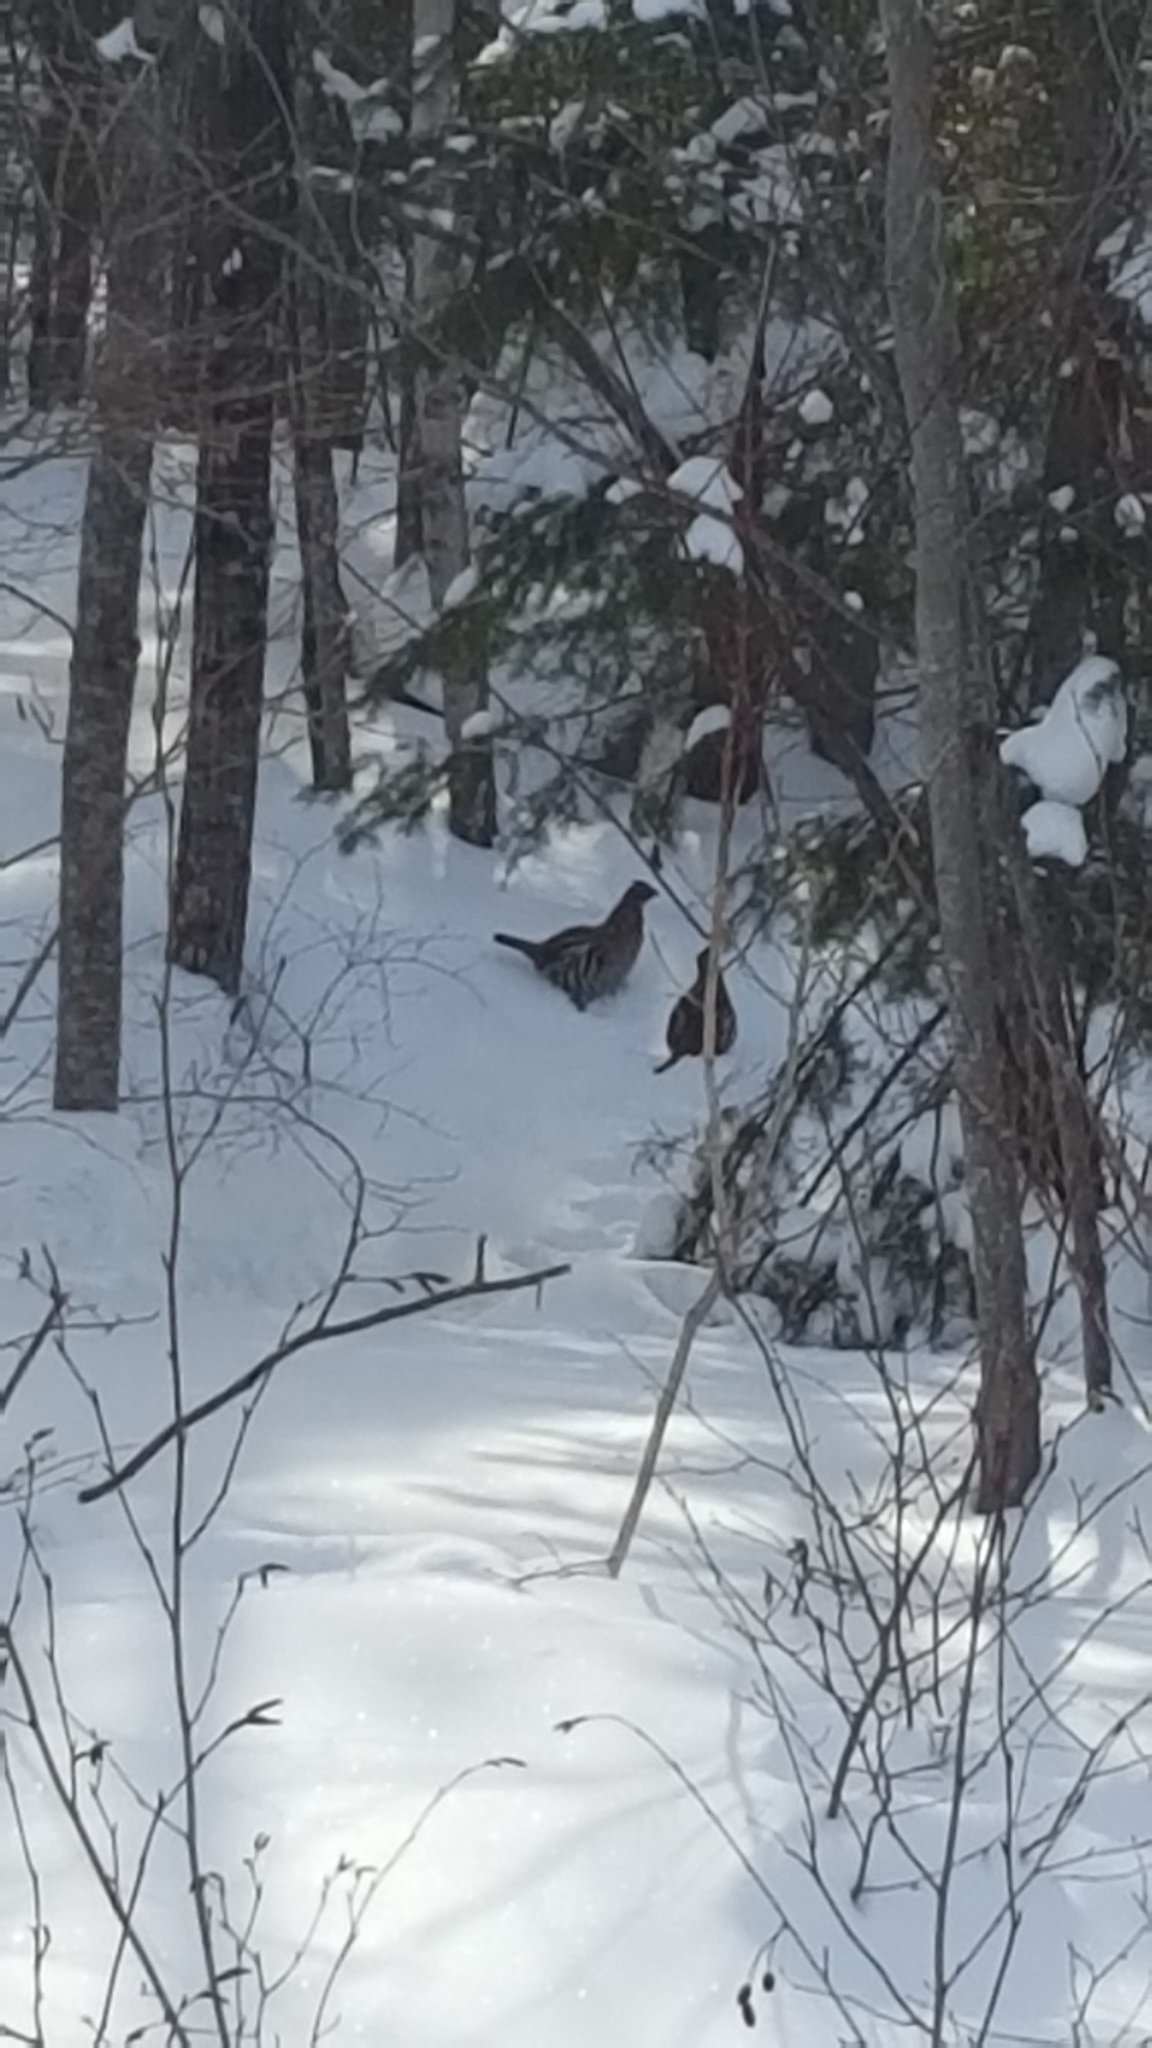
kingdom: Animalia
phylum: Chordata
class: Aves
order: Galliformes
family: Phasianidae
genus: Bonasa
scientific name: Bonasa umbellus
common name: Ruffed grouse
